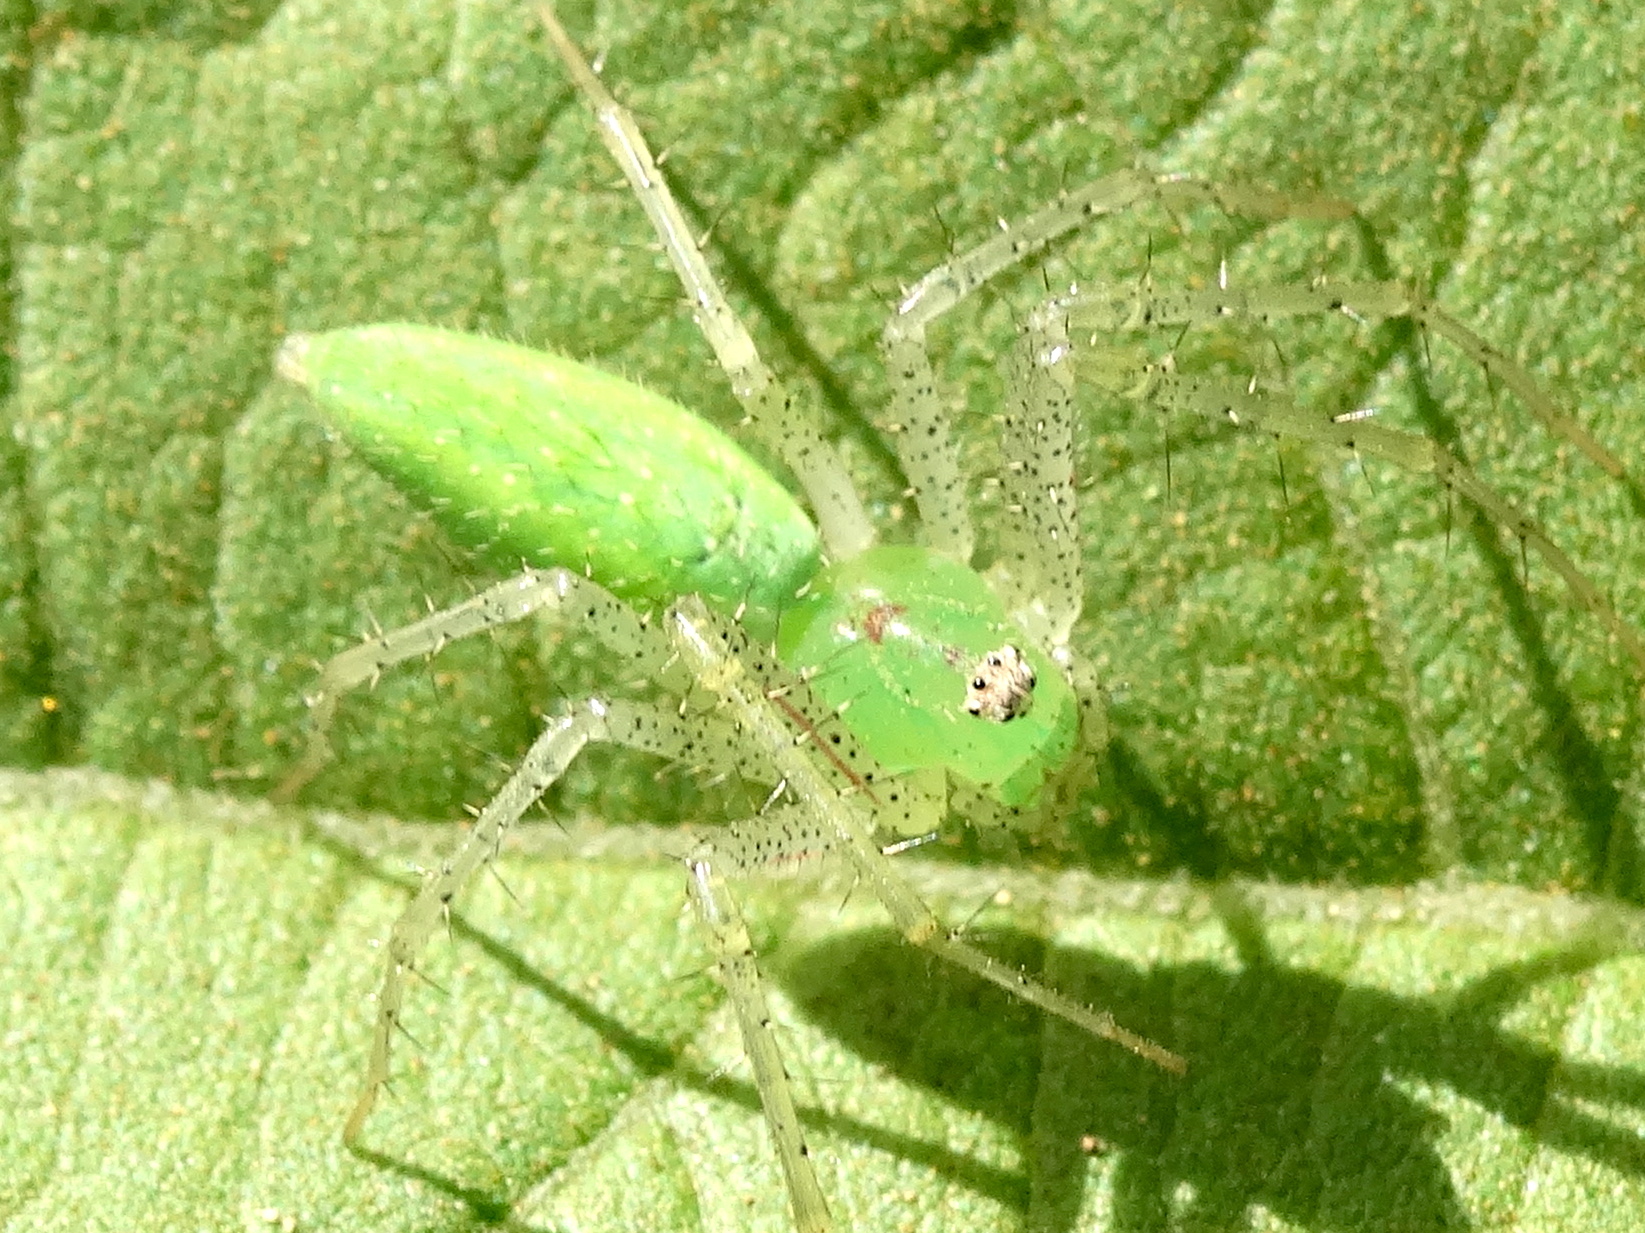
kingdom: Animalia
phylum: Arthropoda
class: Arachnida
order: Araneae
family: Oxyopidae
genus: Peucetia
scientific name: Peucetia longipalpis
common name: Lynx spiders
